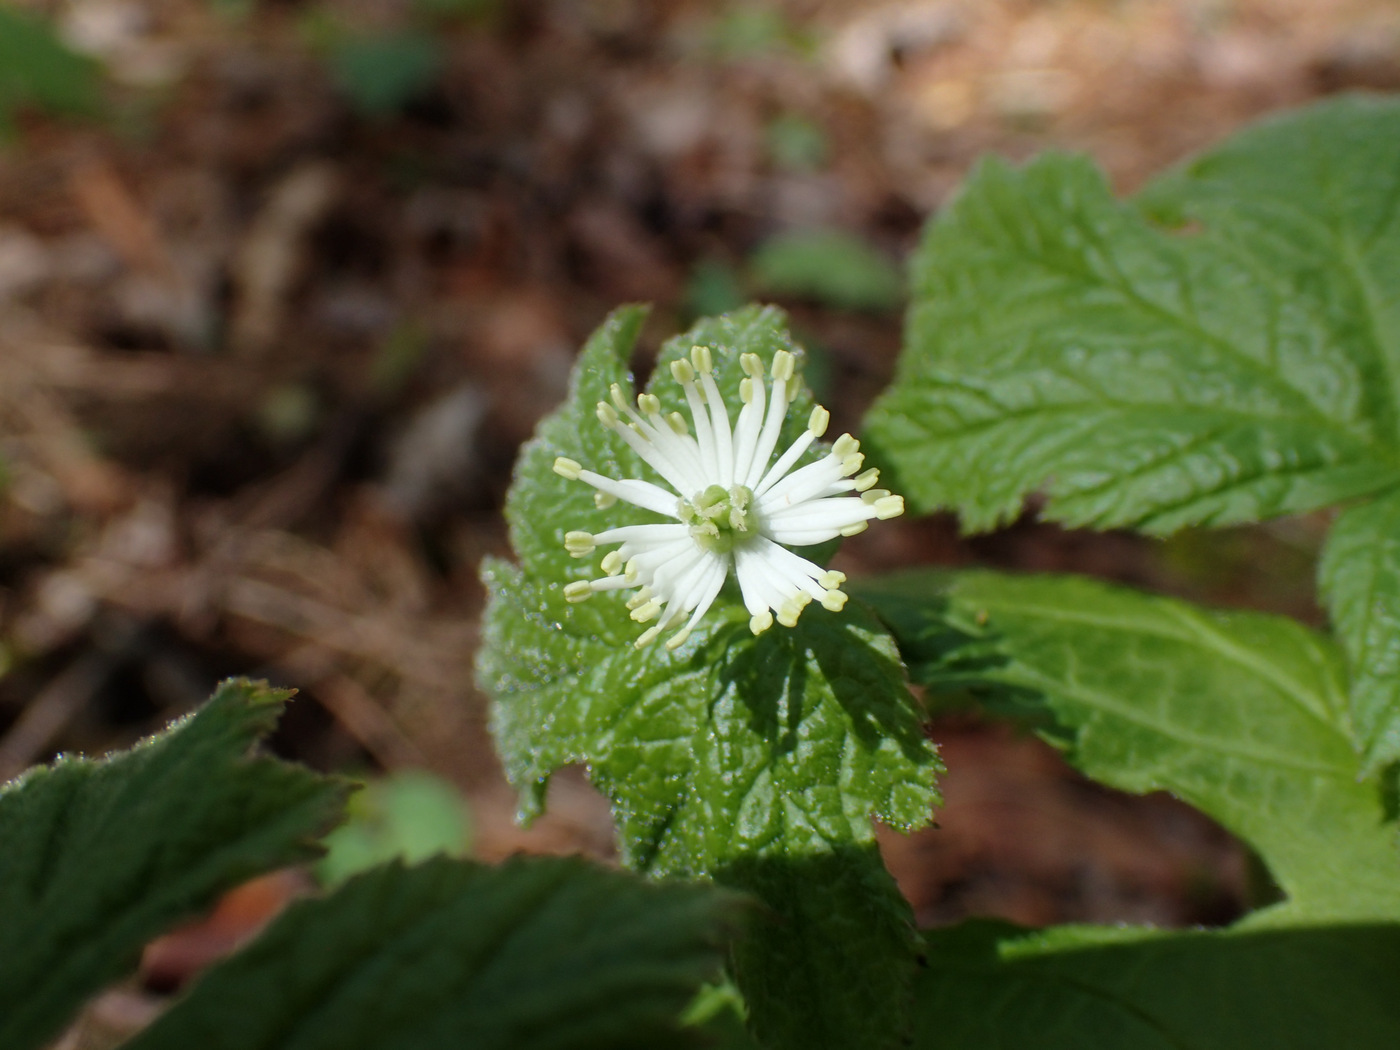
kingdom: Plantae
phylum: Tracheophyta
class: Magnoliopsida
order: Ranunculales
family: Ranunculaceae
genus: Hydrastis
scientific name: Hydrastis canadensis
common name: Goldenseal
